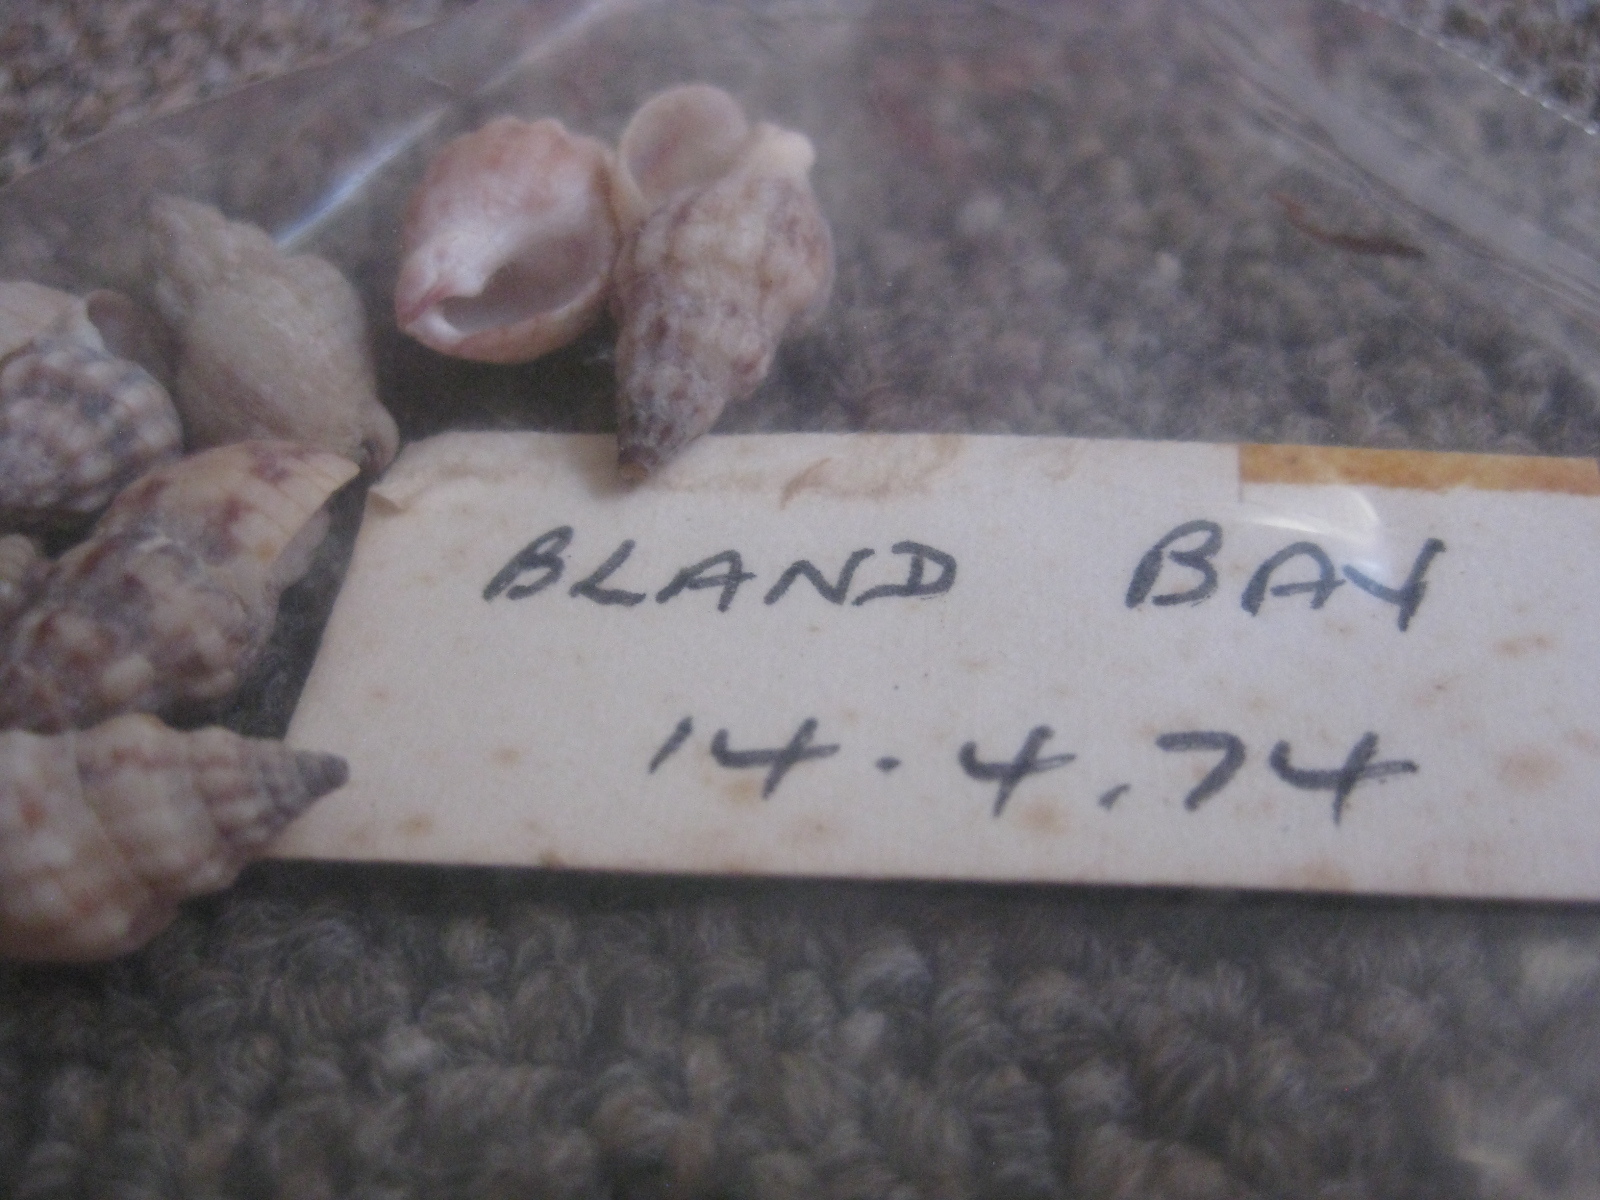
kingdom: Animalia
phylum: Mollusca
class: Gastropoda
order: Neogastropoda
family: Cominellidae
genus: Cominella
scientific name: Cominella quoyana
